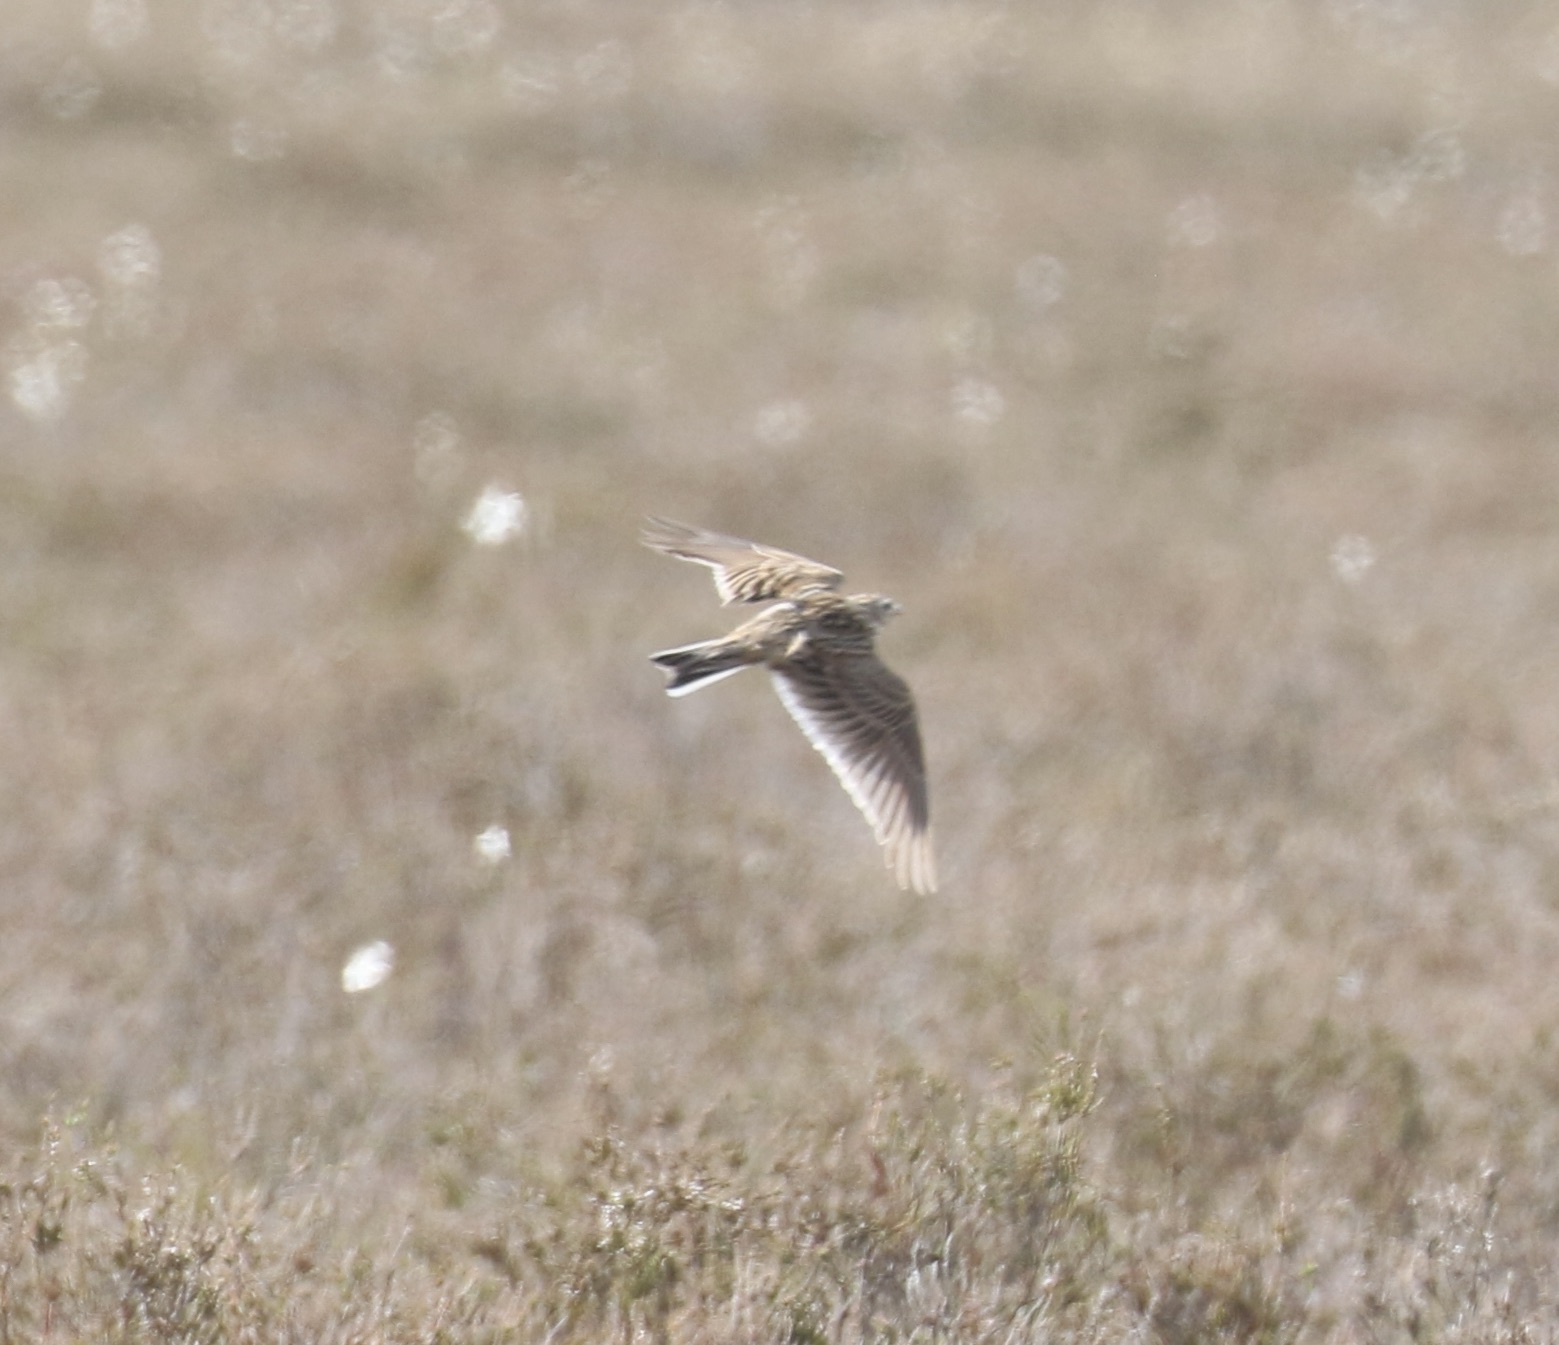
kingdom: Animalia
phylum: Chordata
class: Aves
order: Passeriformes
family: Alaudidae
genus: Alauda
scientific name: Alauda arvensis
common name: Eurasian skylark
